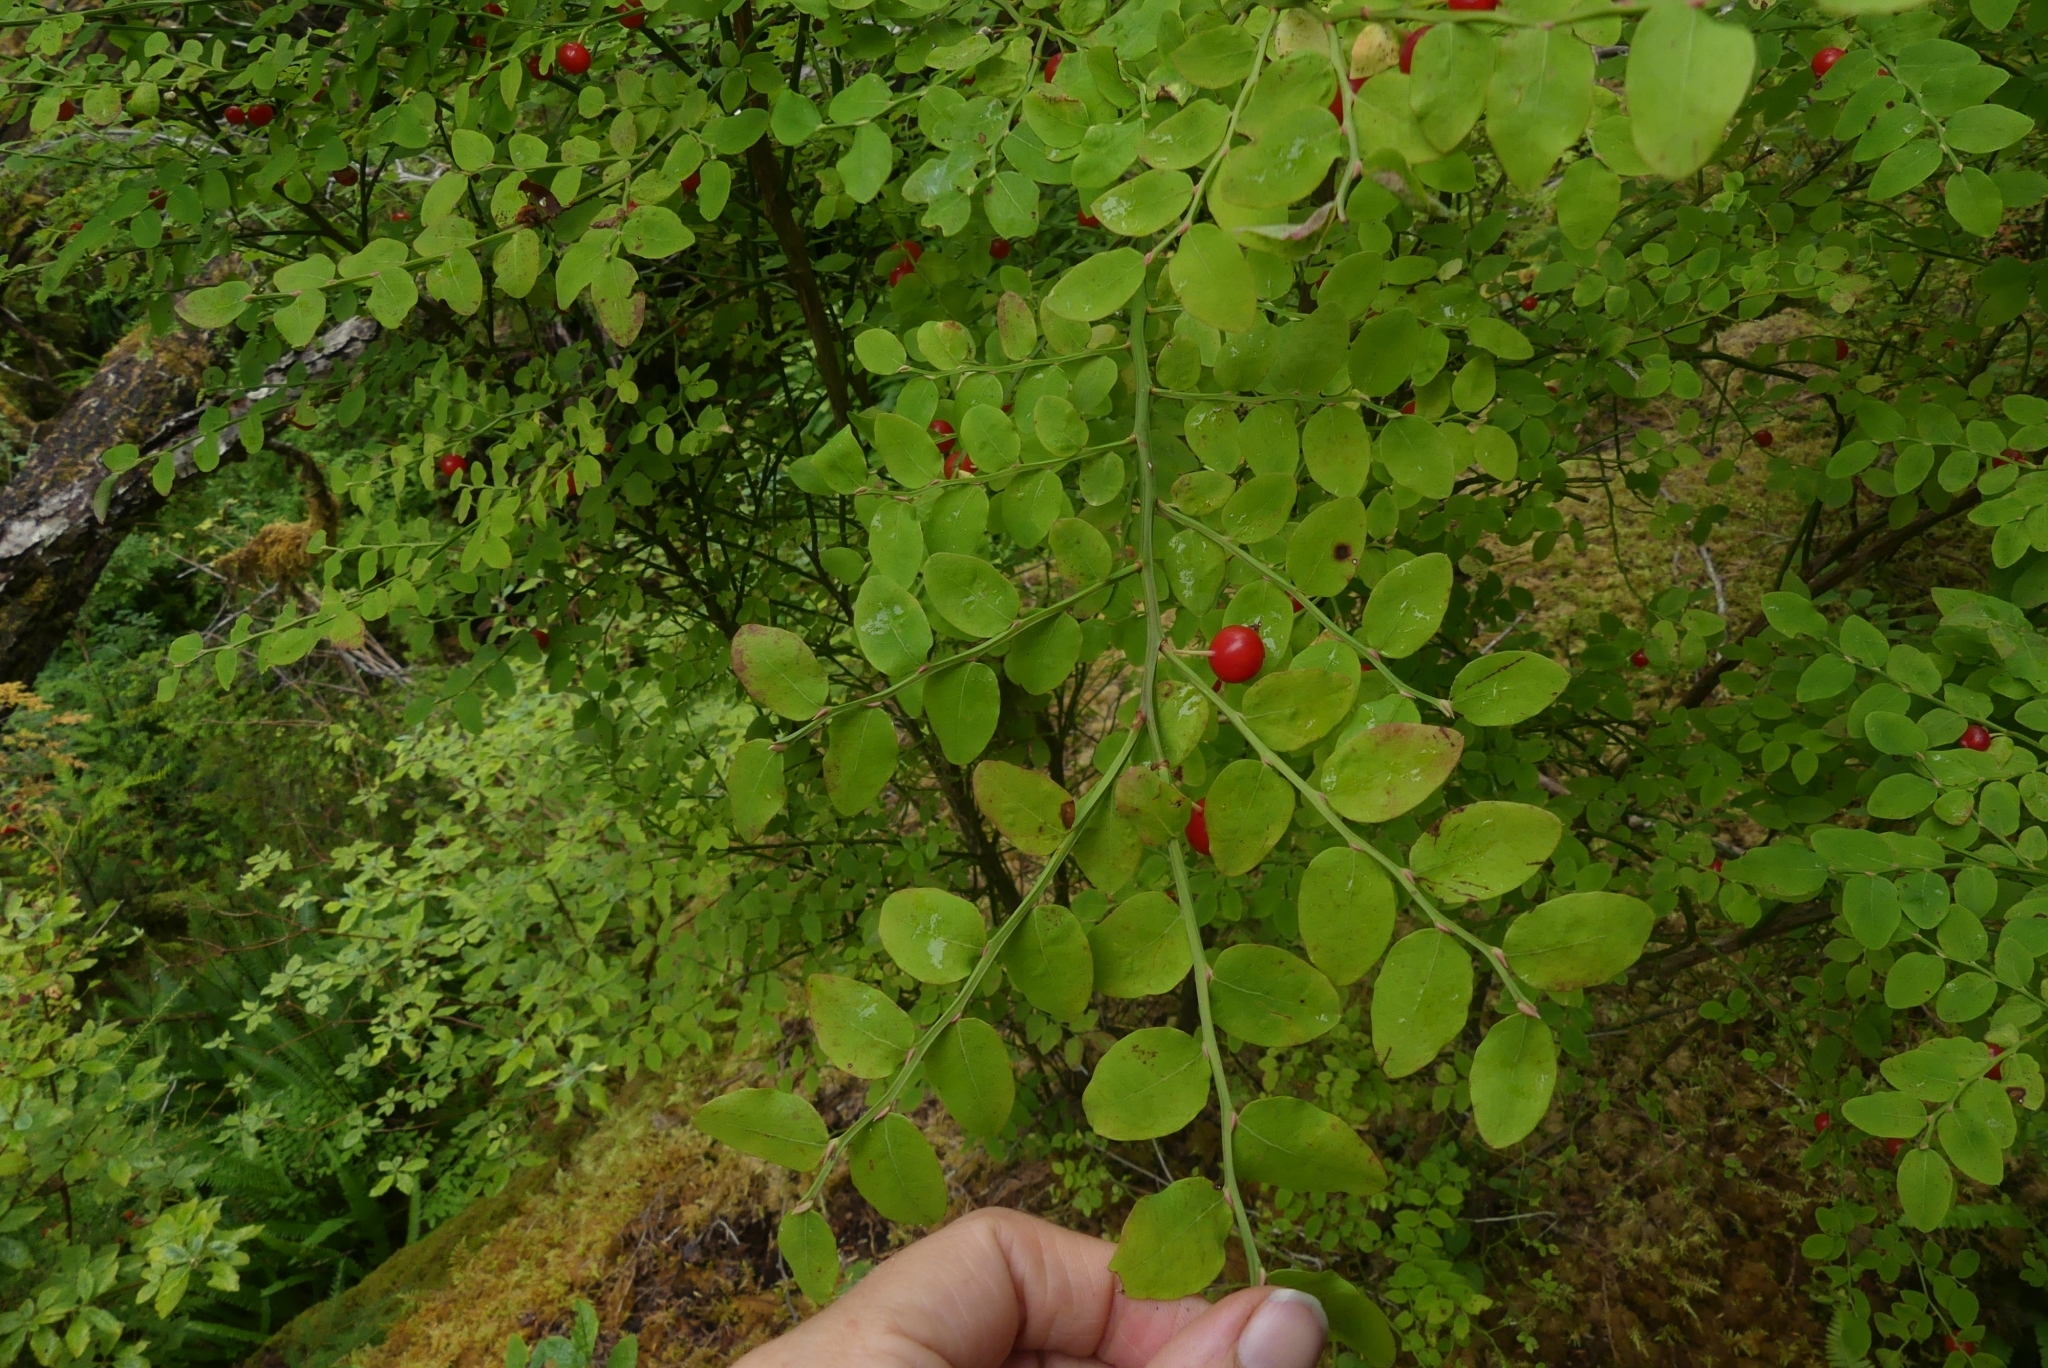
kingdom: Plantae
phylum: Tracheophyta
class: Magnoliopsida
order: Ericales
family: Ericaceae
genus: Vaccinium
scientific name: Vaccinium parvifolium
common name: Red-huckleberry
